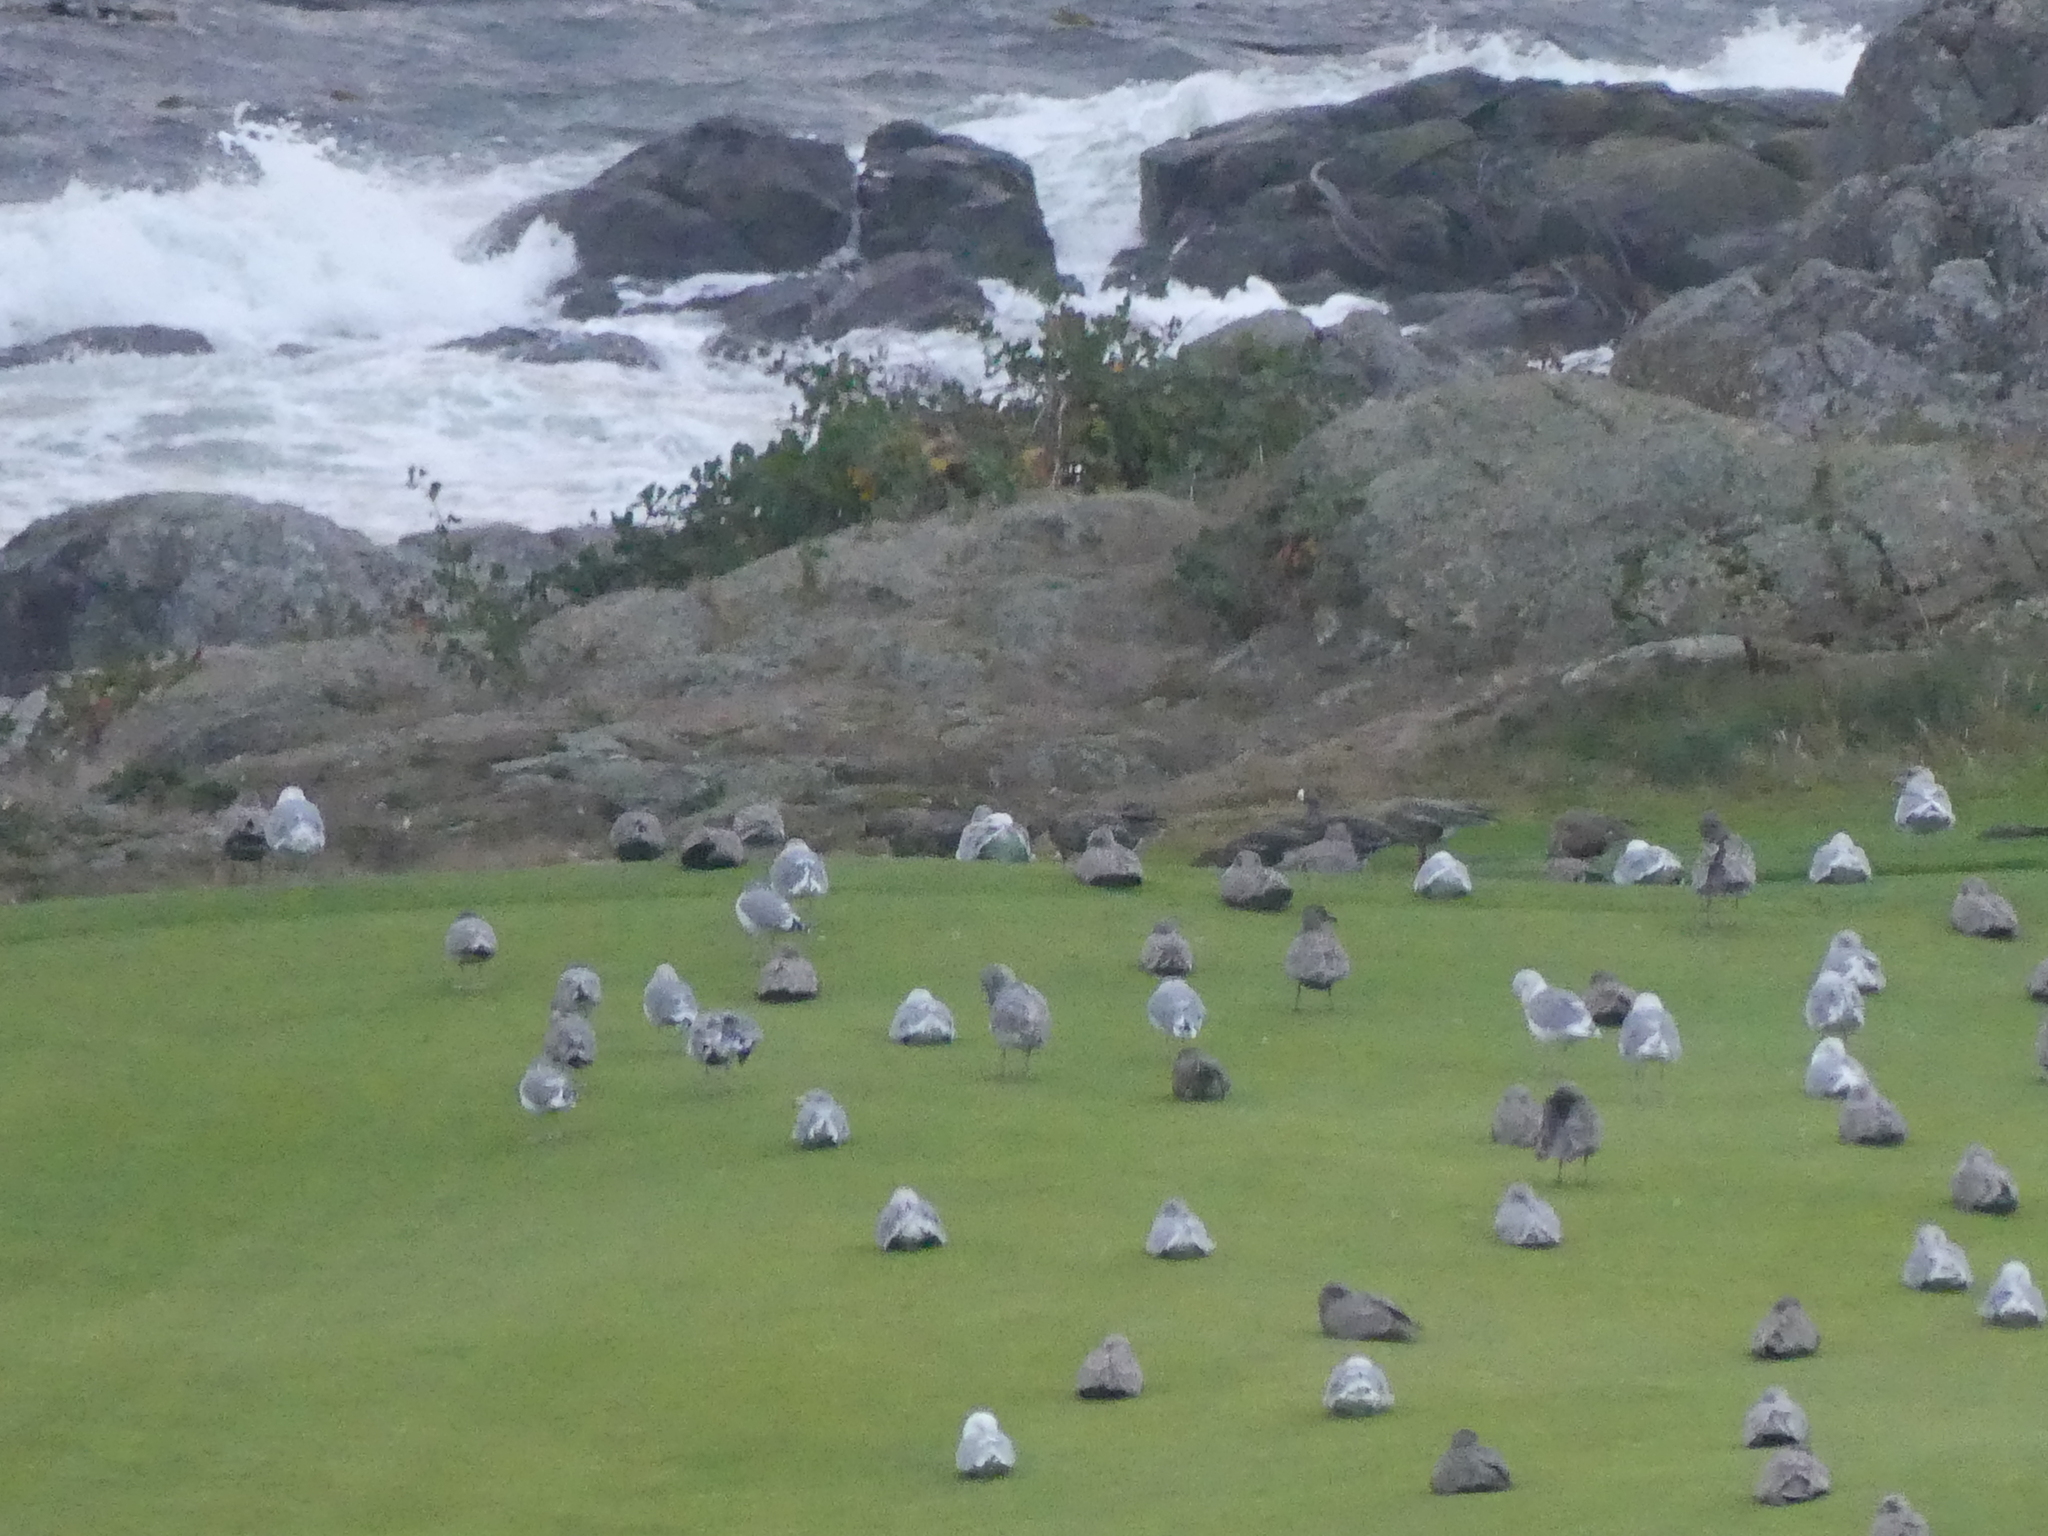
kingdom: Animalia
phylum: Chordata
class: Aves
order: Anseriformes
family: Anatidae
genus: Anser
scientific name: Anser albifrons
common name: Greater white-fronted goose
